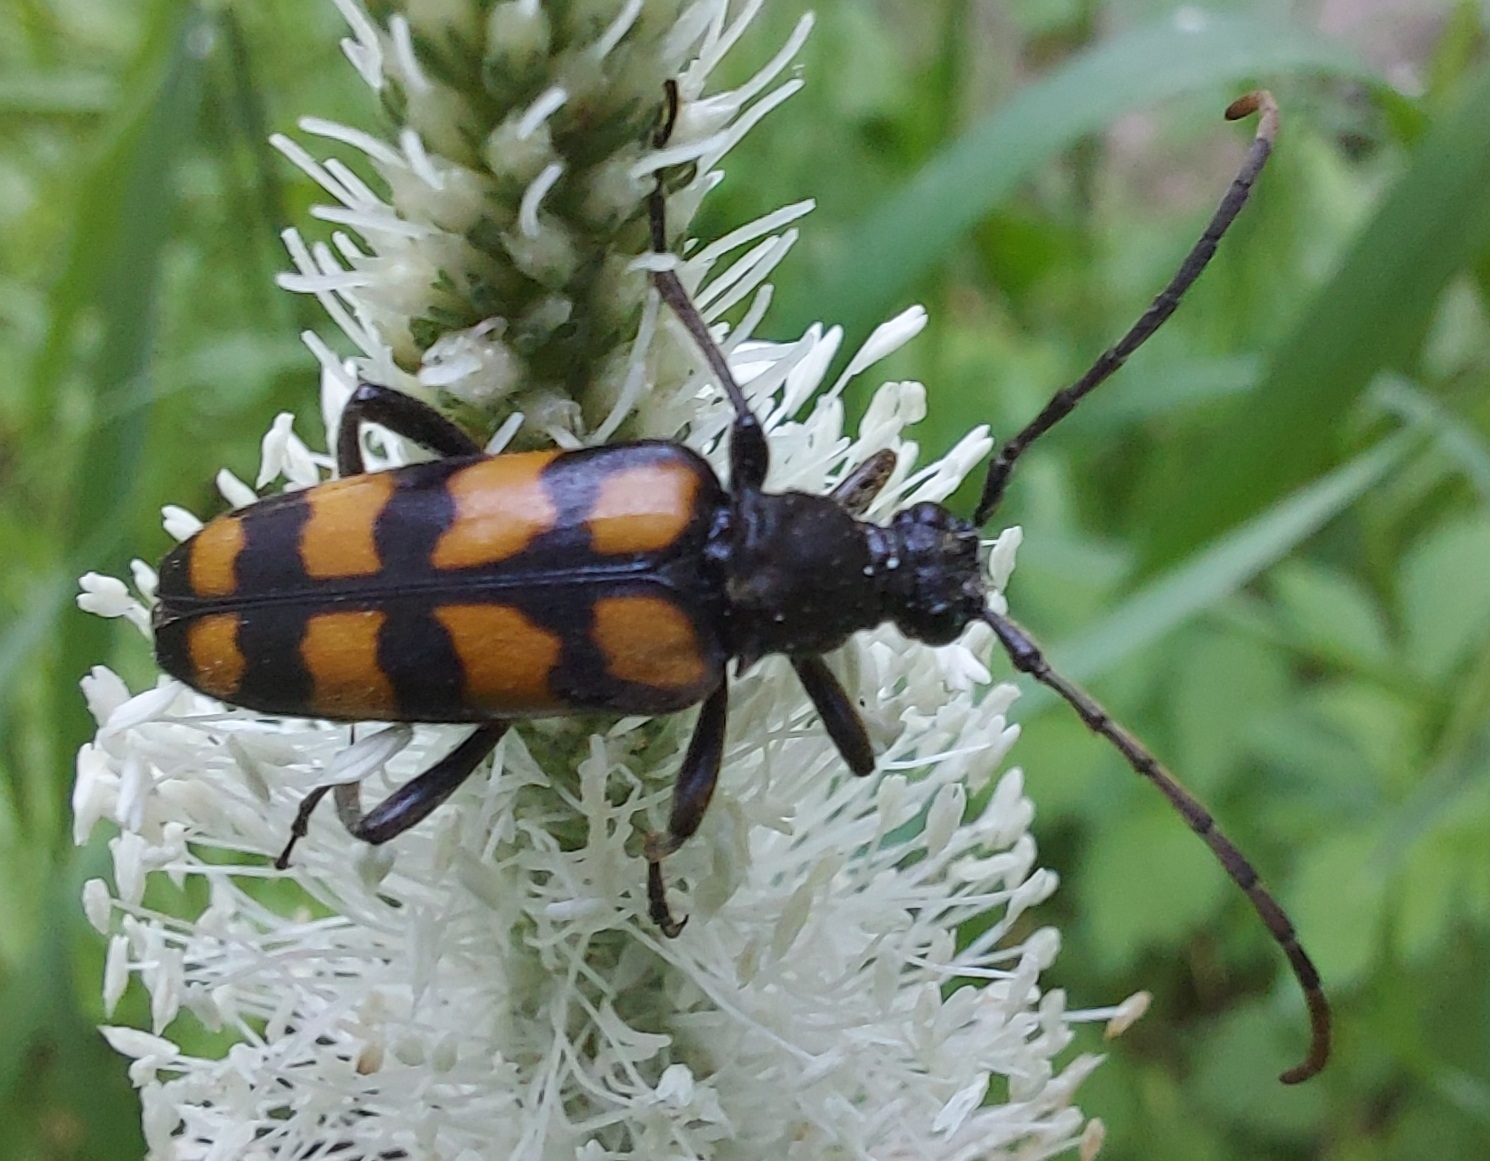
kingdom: Animalia
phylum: Arthropoda
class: Insecta
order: Coleoptera
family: Cerambycidae
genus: Leptura
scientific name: Leptura quadrifasciata
